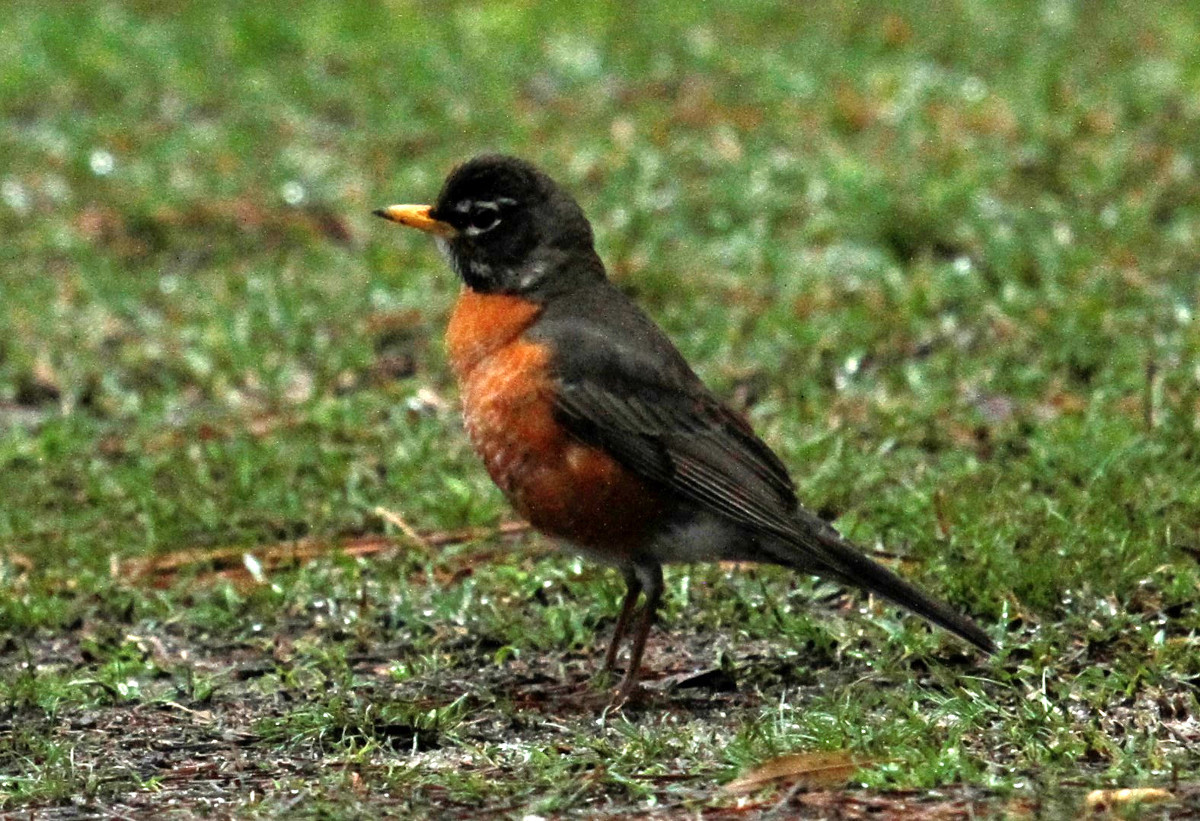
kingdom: Animalia
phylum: Chordata
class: Aves
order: Passeriformes
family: Turdidae
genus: Turdus
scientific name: Turdus migratorius
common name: American robin
